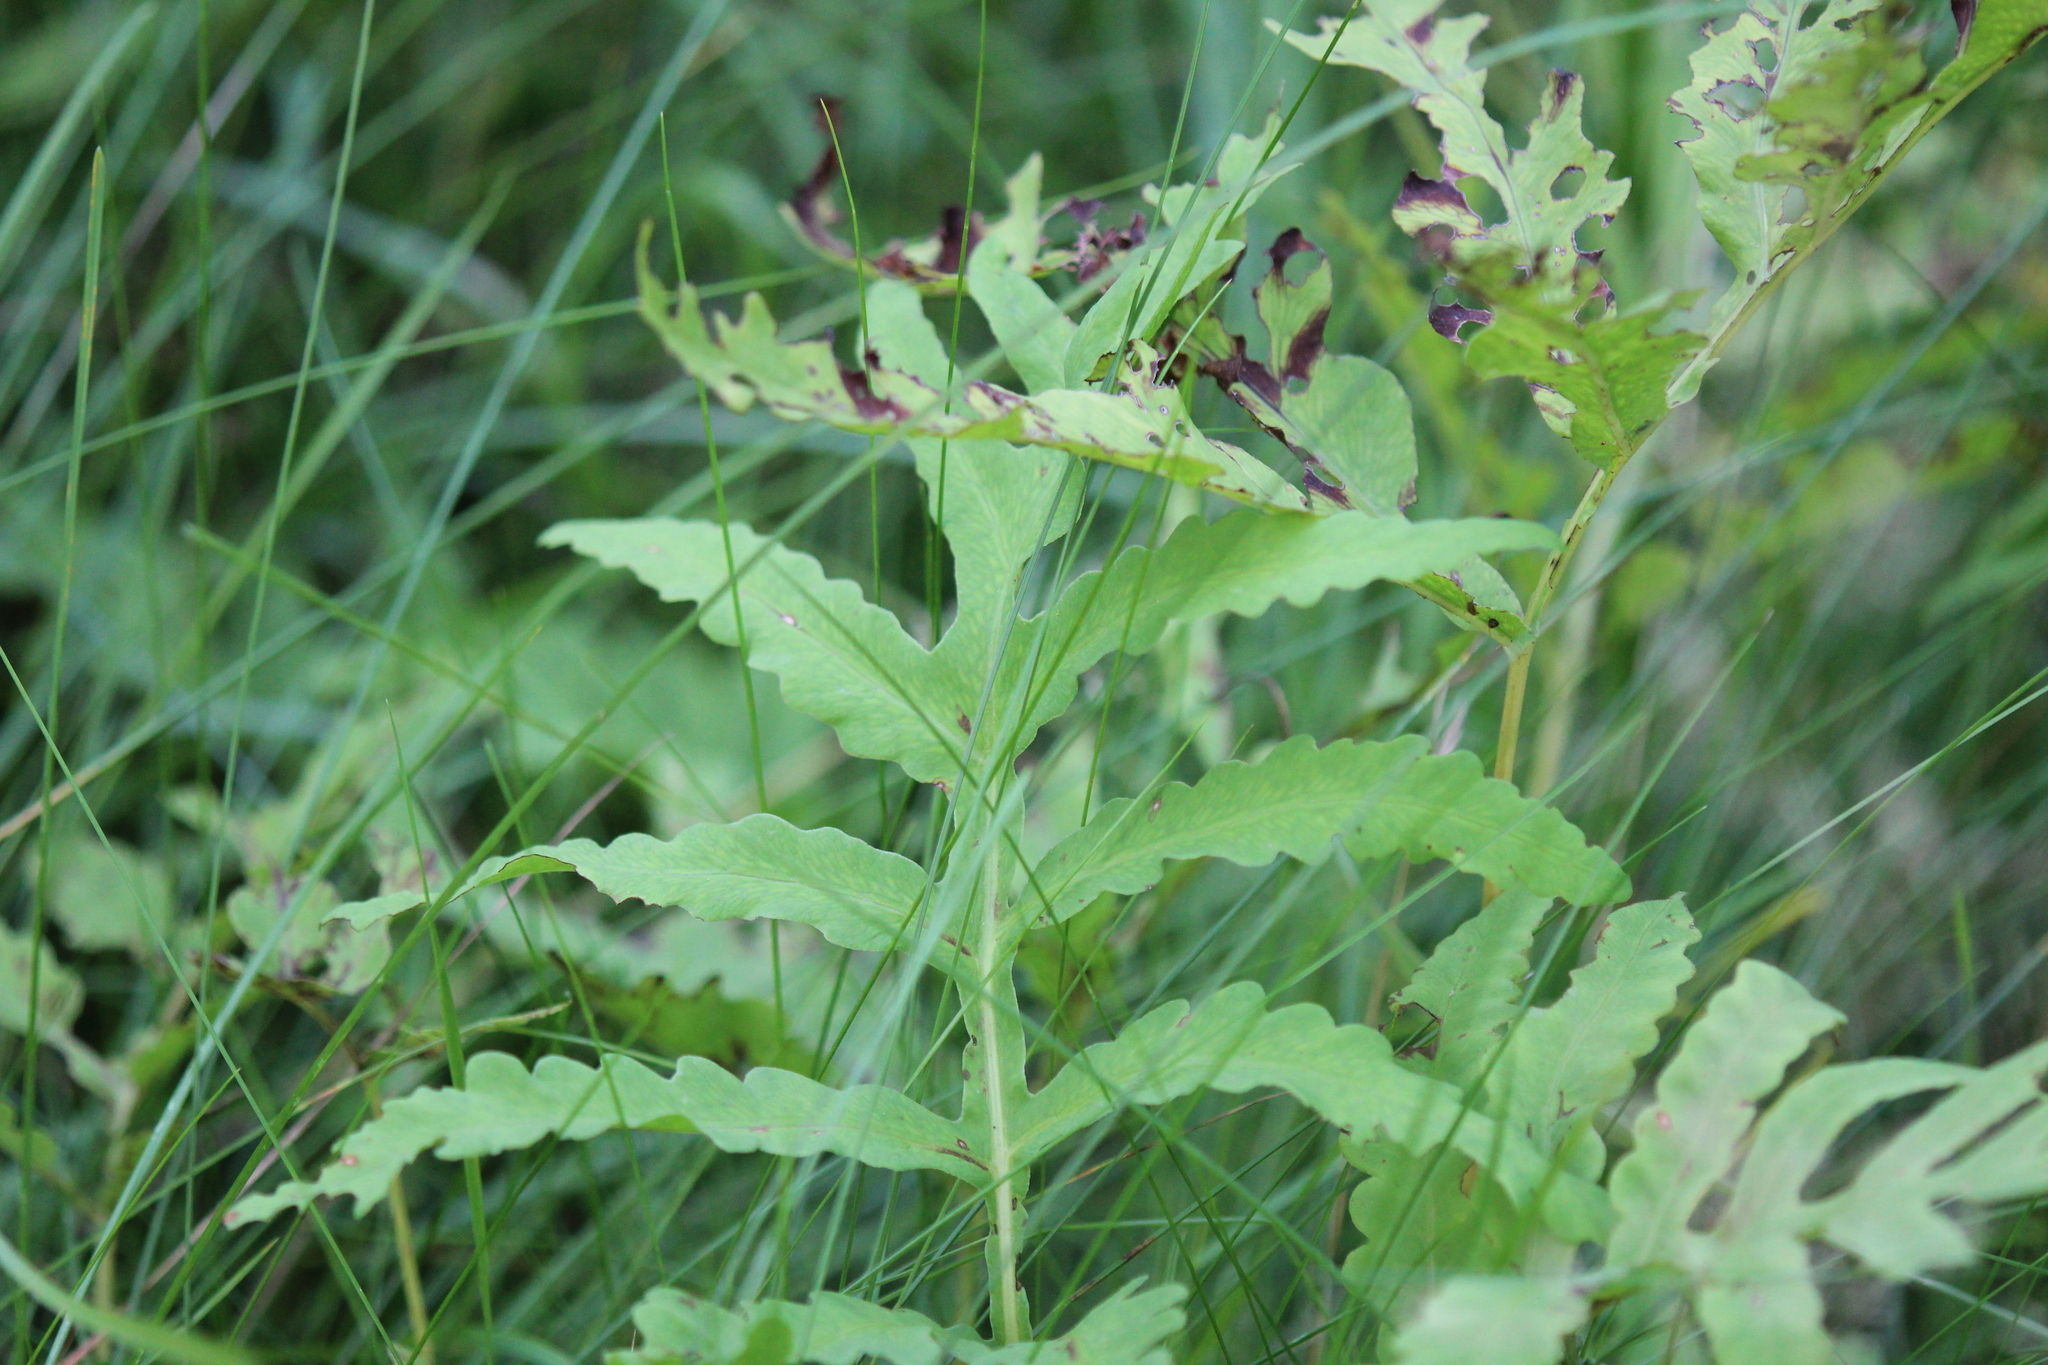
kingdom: Plantae
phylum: Tracheophyta
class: Polypodiopsida
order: Polypodiales
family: Onocleaceae
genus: Onoclea
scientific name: Onoclea sensibilis
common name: Sensitive fern
